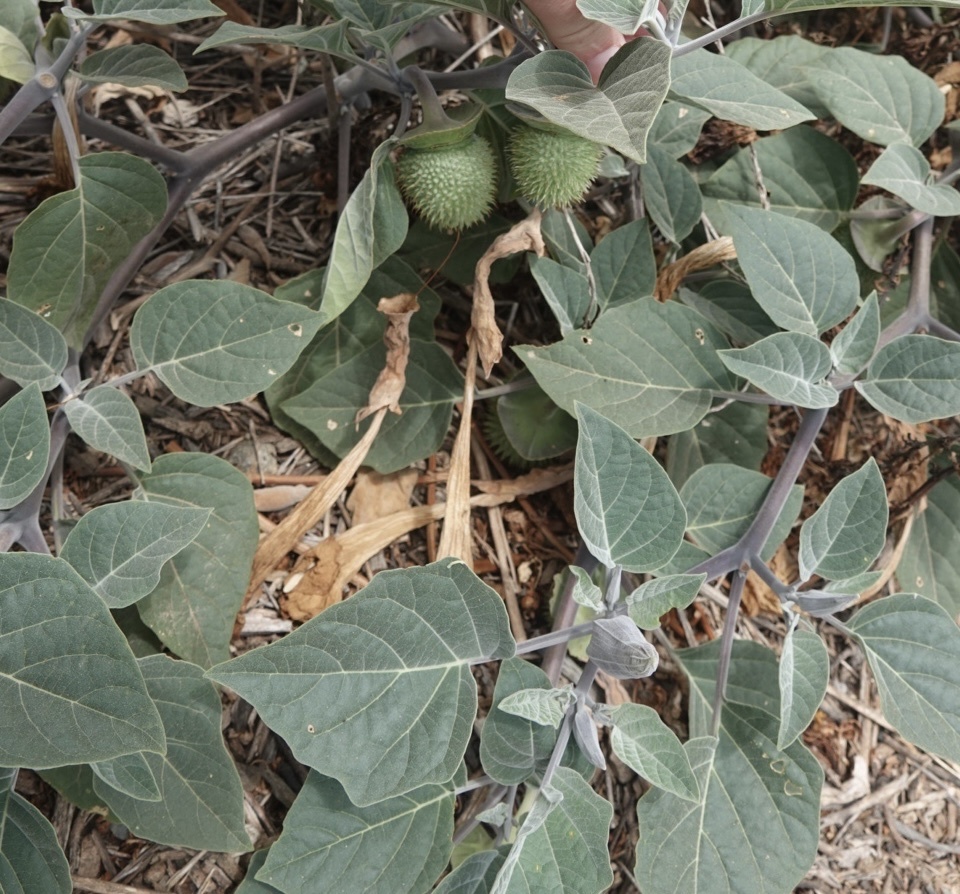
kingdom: Plantae
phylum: Tracheophyta
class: Magnoliopsida
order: Solanales
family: Solanaceae
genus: Datura
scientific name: Datura wrightii
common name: Sacred thorn-apple
